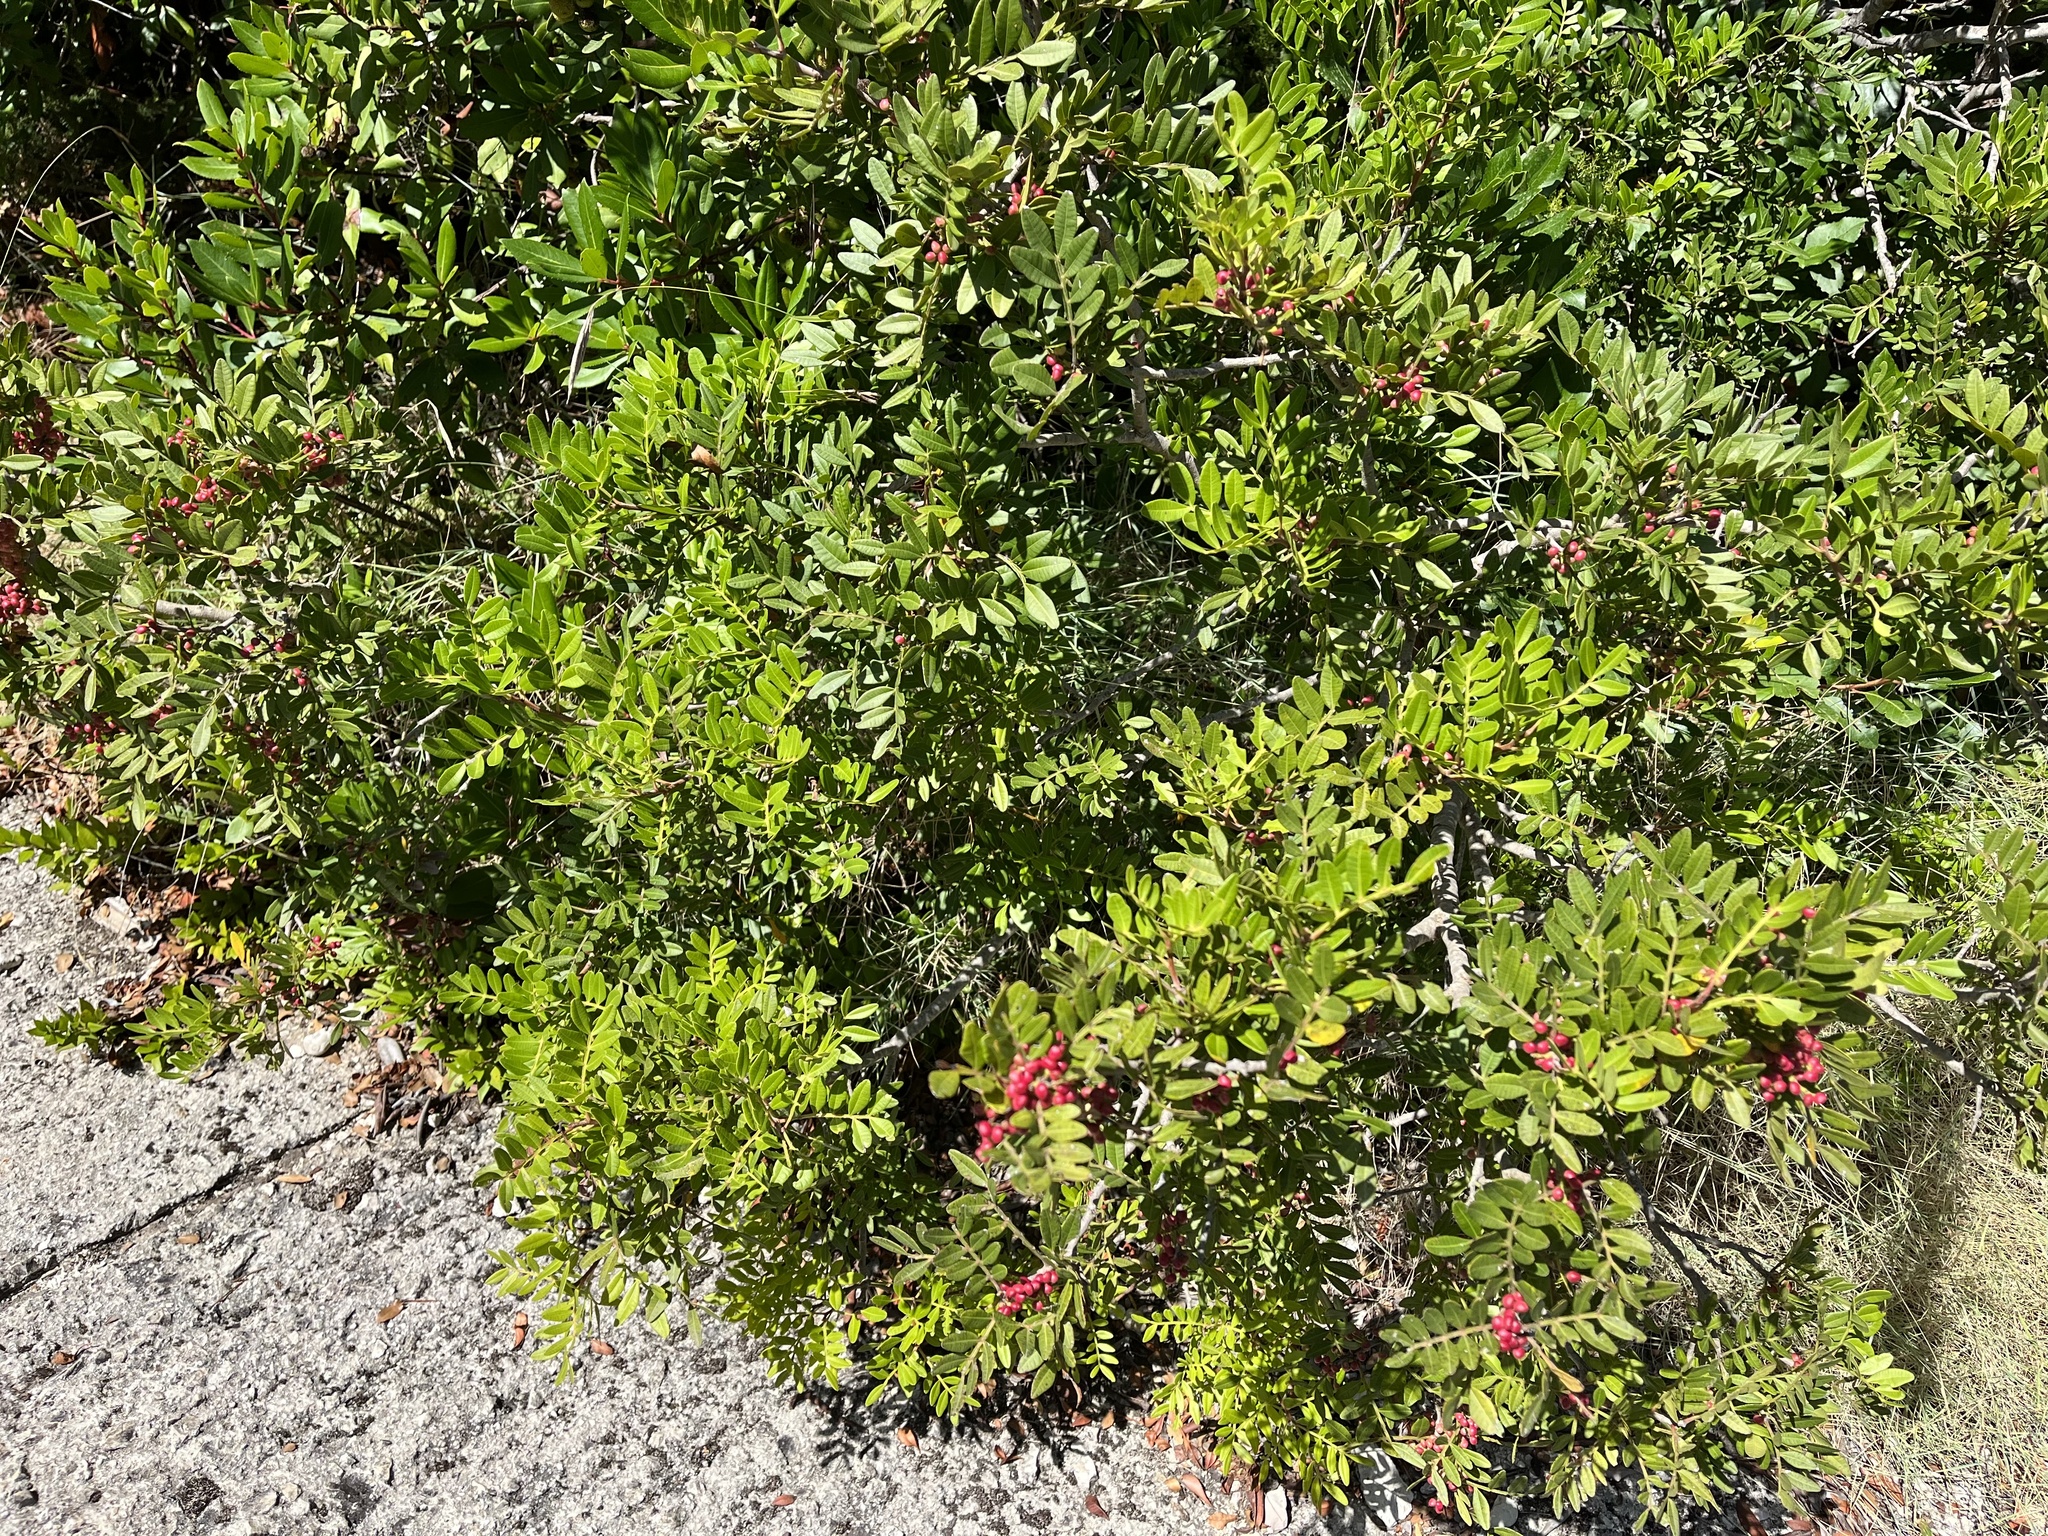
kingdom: Plantae
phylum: Tracheophyta
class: Magnoliopsida
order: Sapindales
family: Anacardiaceae
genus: Pistacia
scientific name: Pistacia lentiscus
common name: Lentisk
